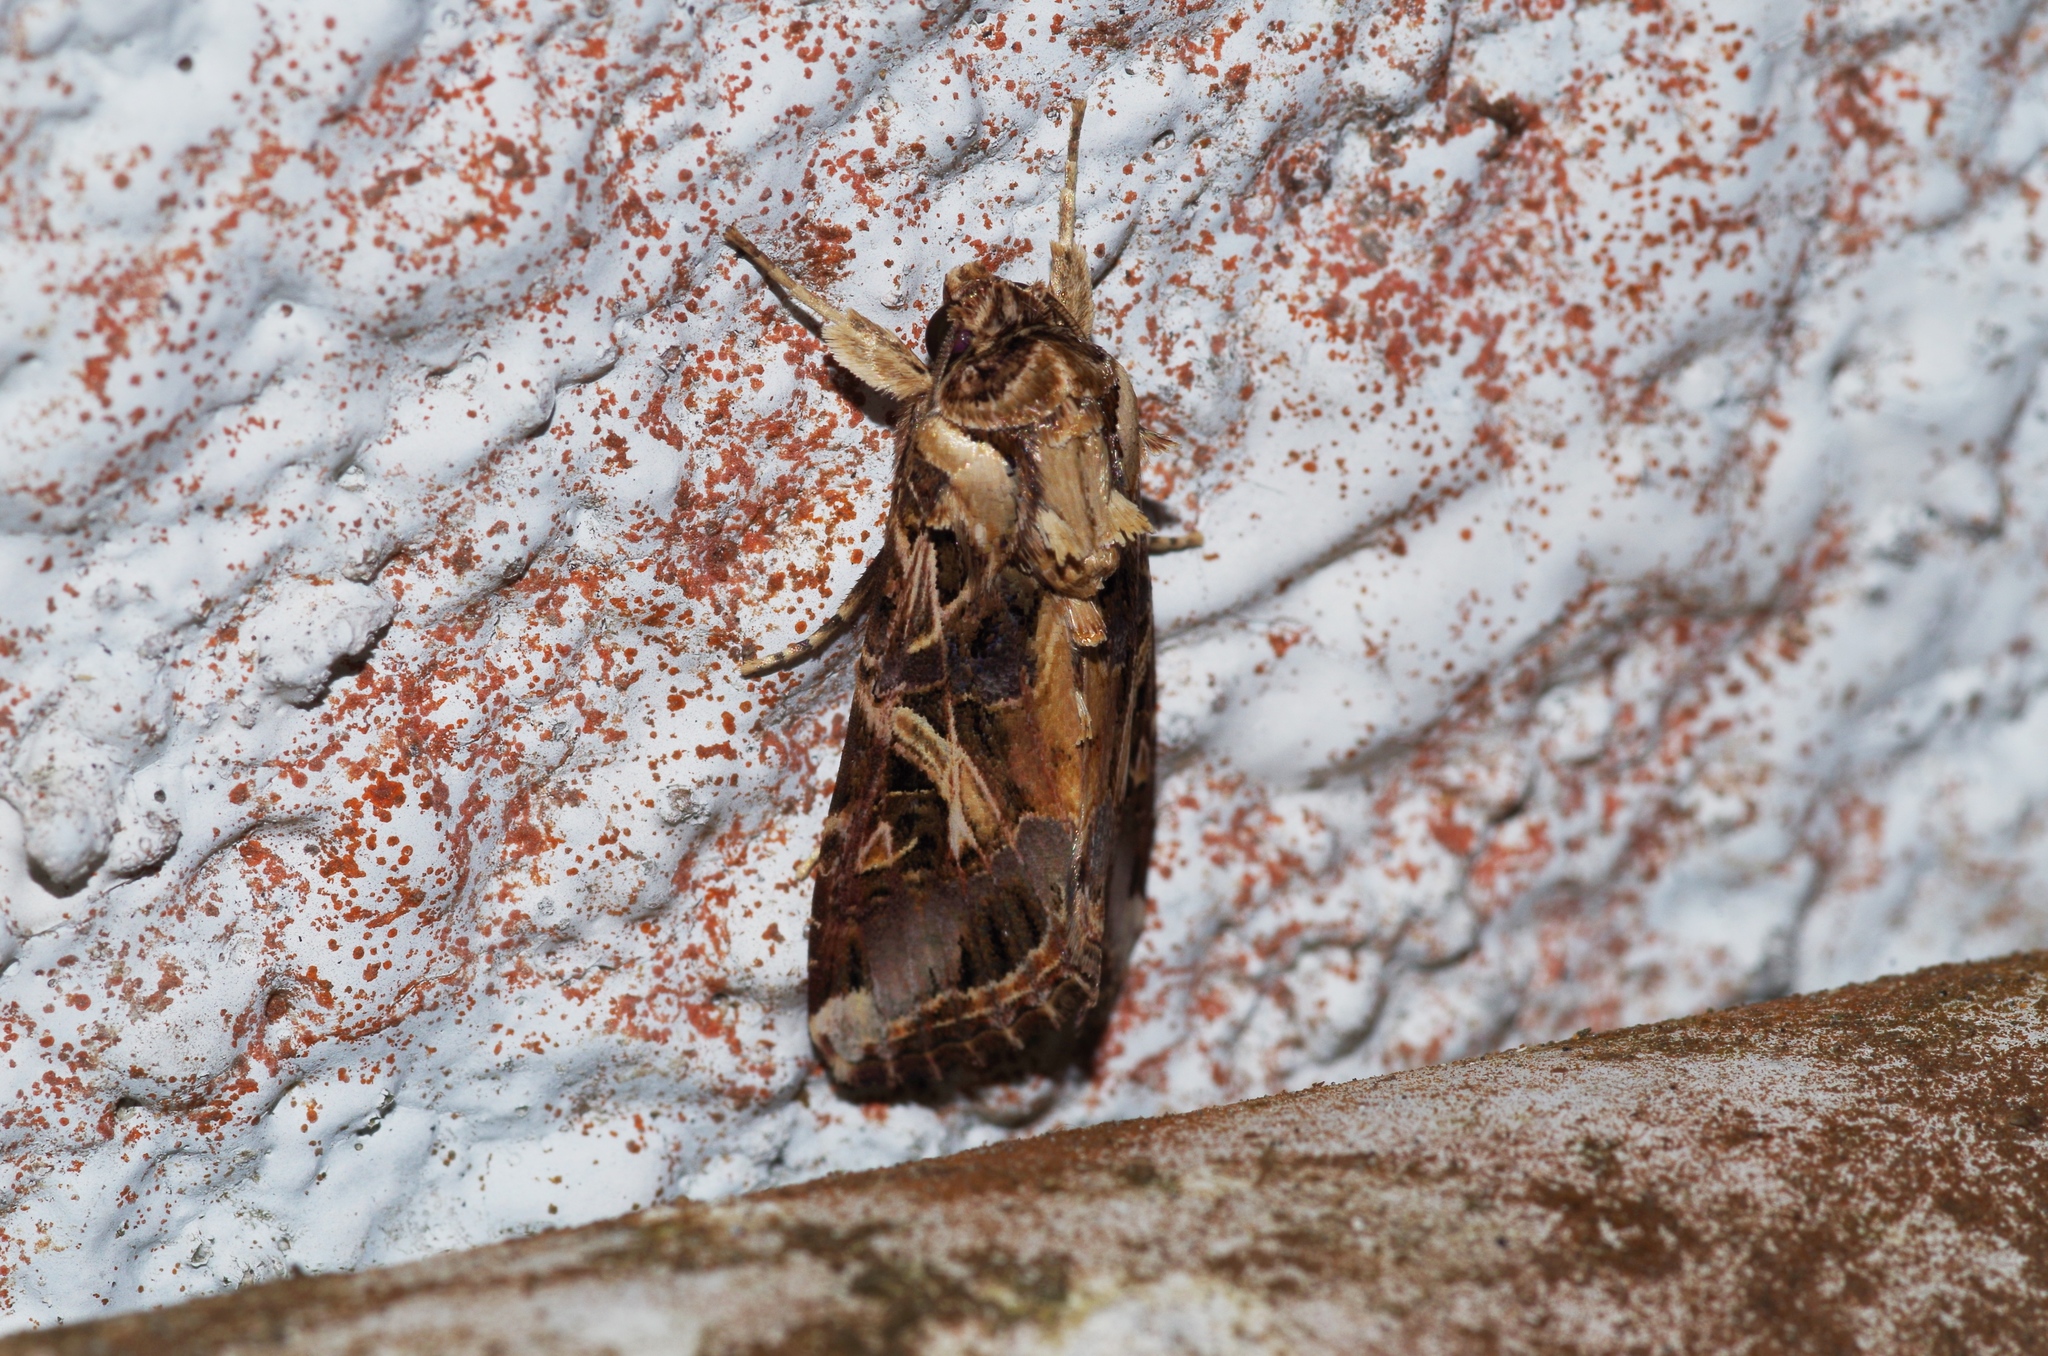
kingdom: Animalia
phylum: Arthropoda
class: Insecta
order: Lepidoptera
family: Noctuidae
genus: Spodoptera
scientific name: Spodoptera litura
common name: Asian cotton leafworm
